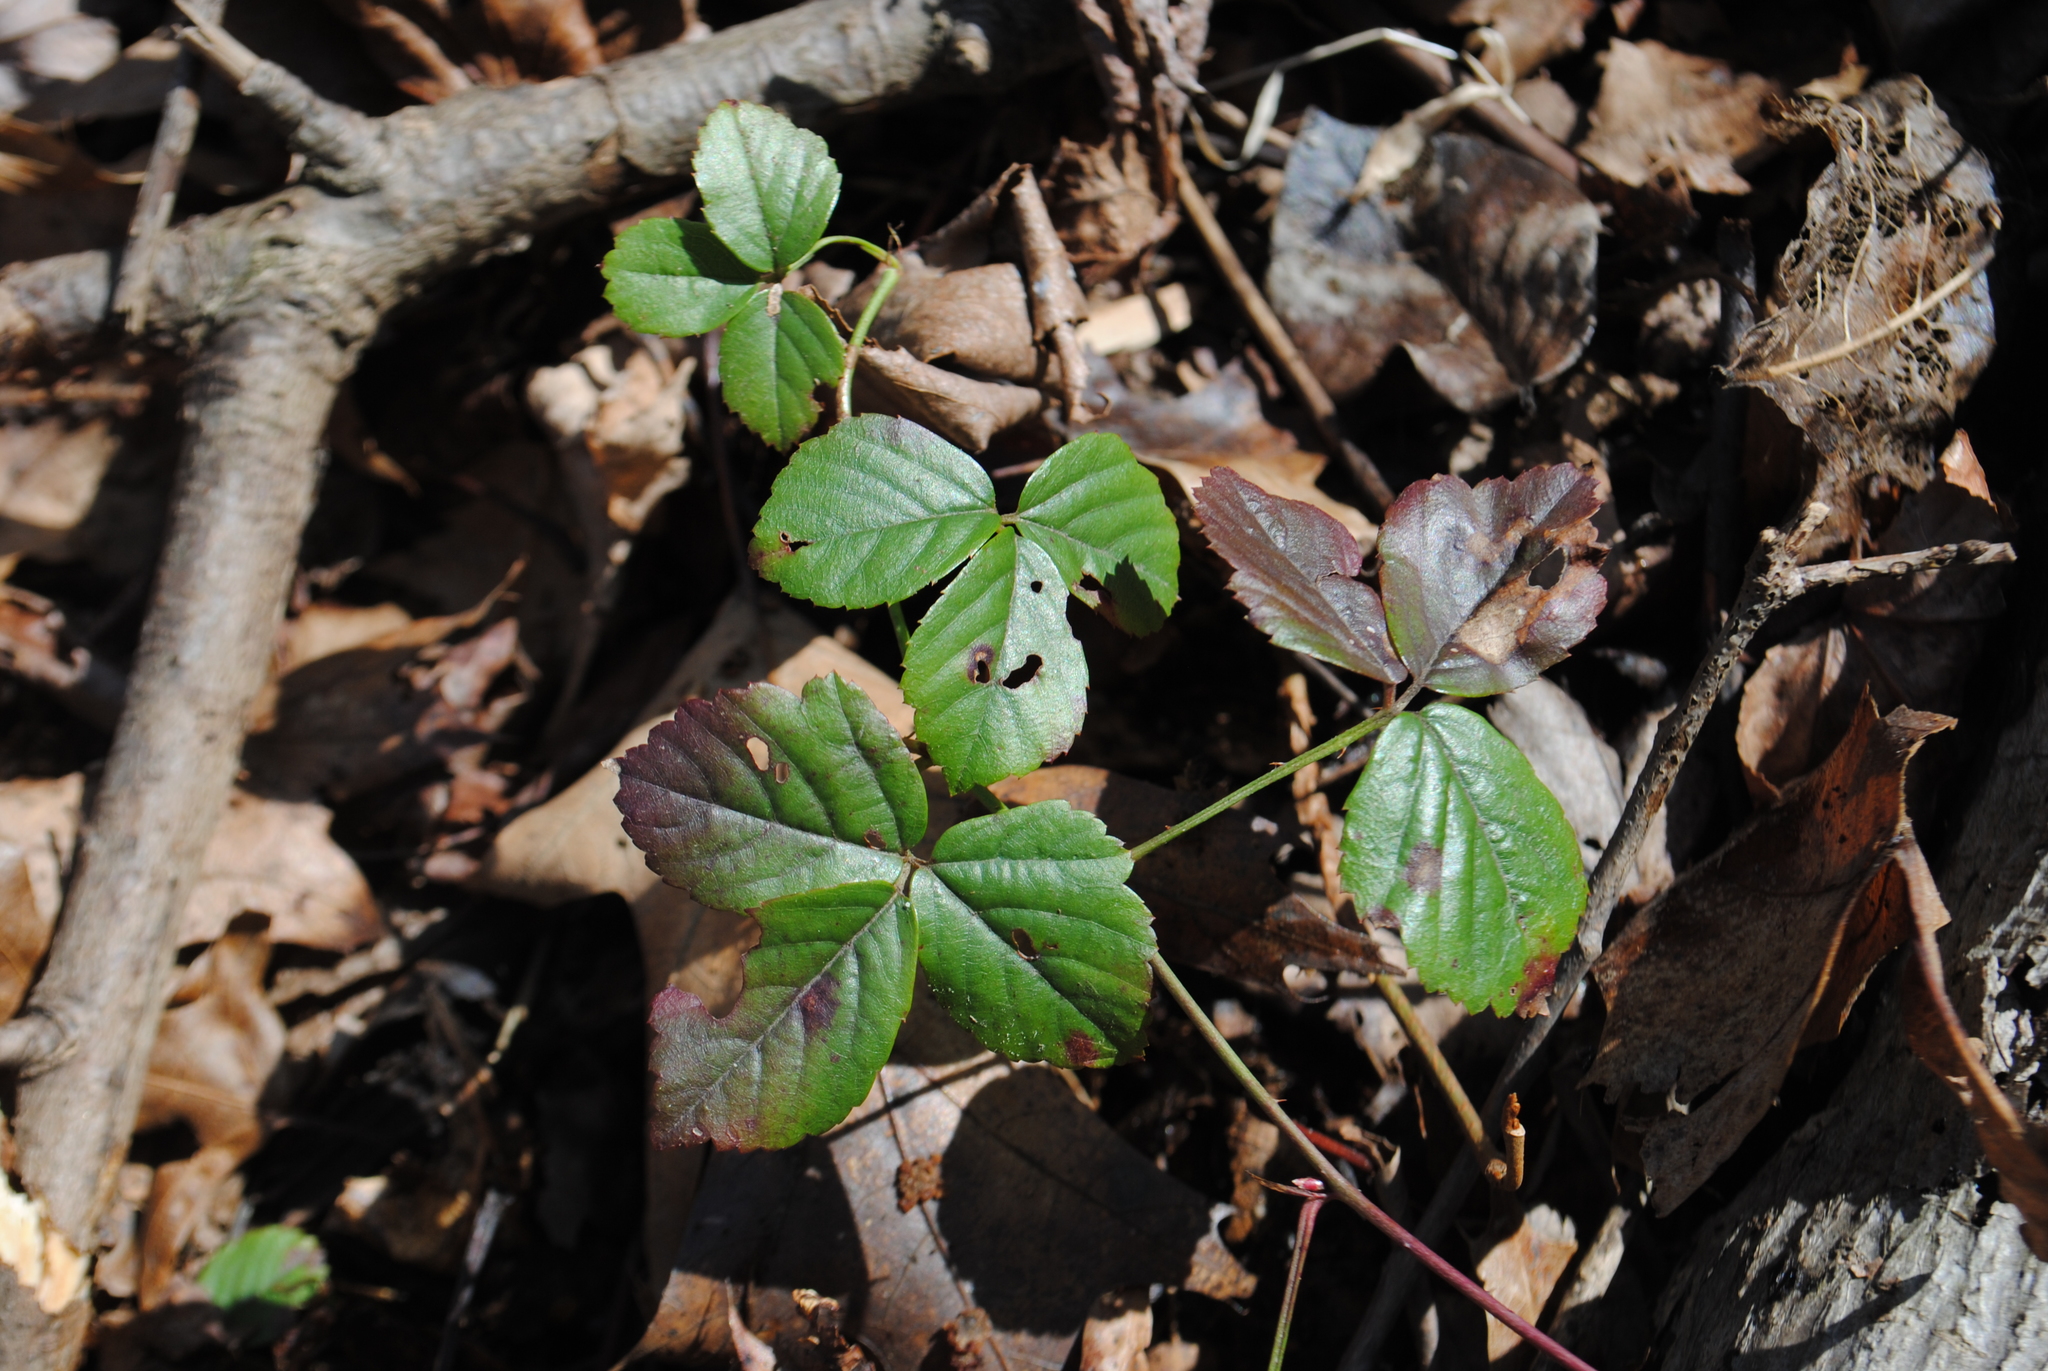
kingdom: Plantae
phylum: Tracheophyta
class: Magnoliopsida
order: Rosales
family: Rosaceae
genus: Rubus
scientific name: Rubus hispidus
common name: Running blackberry
